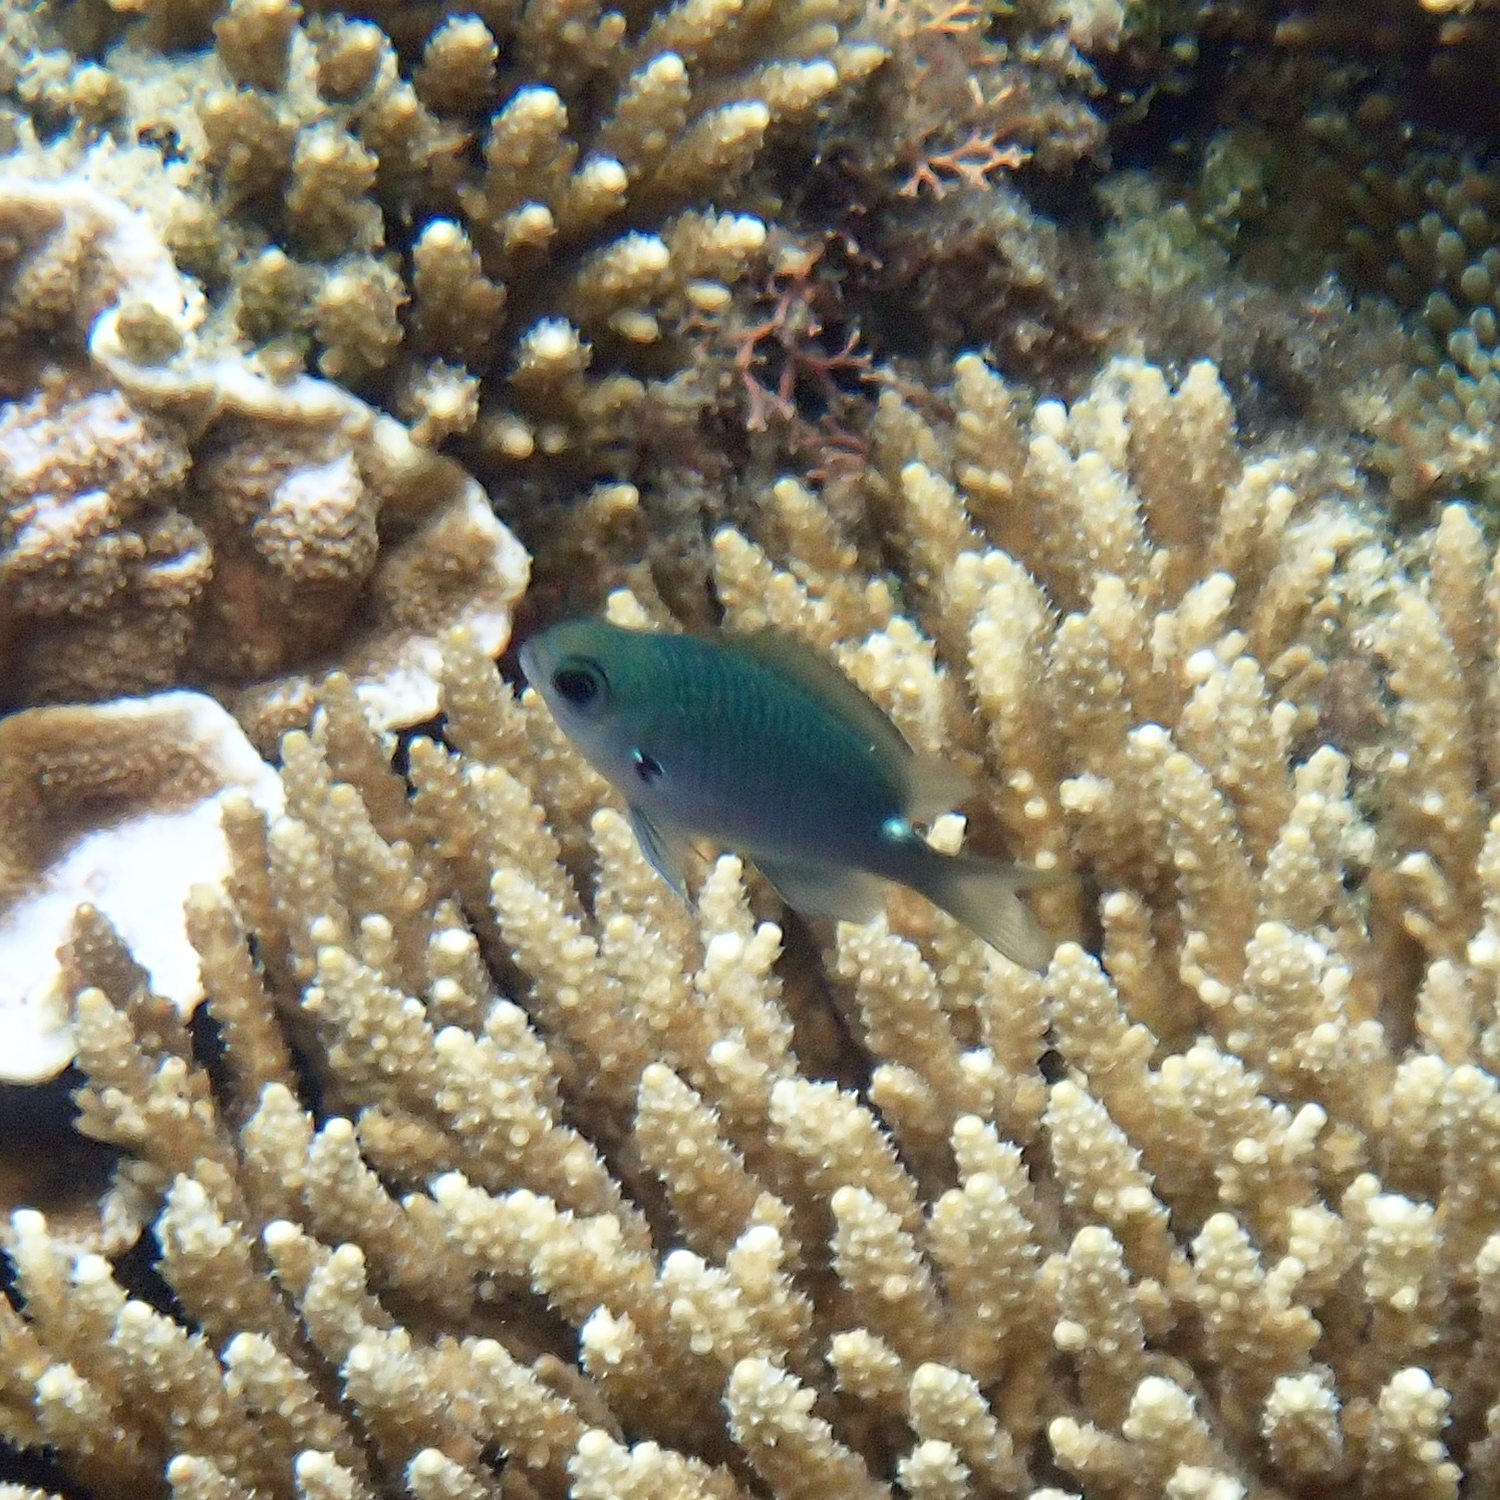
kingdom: Animalia
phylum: Chordata
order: Perciformes
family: Pomacentridae
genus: Chromis
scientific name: Chromis hypsilepis
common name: Brown puller
